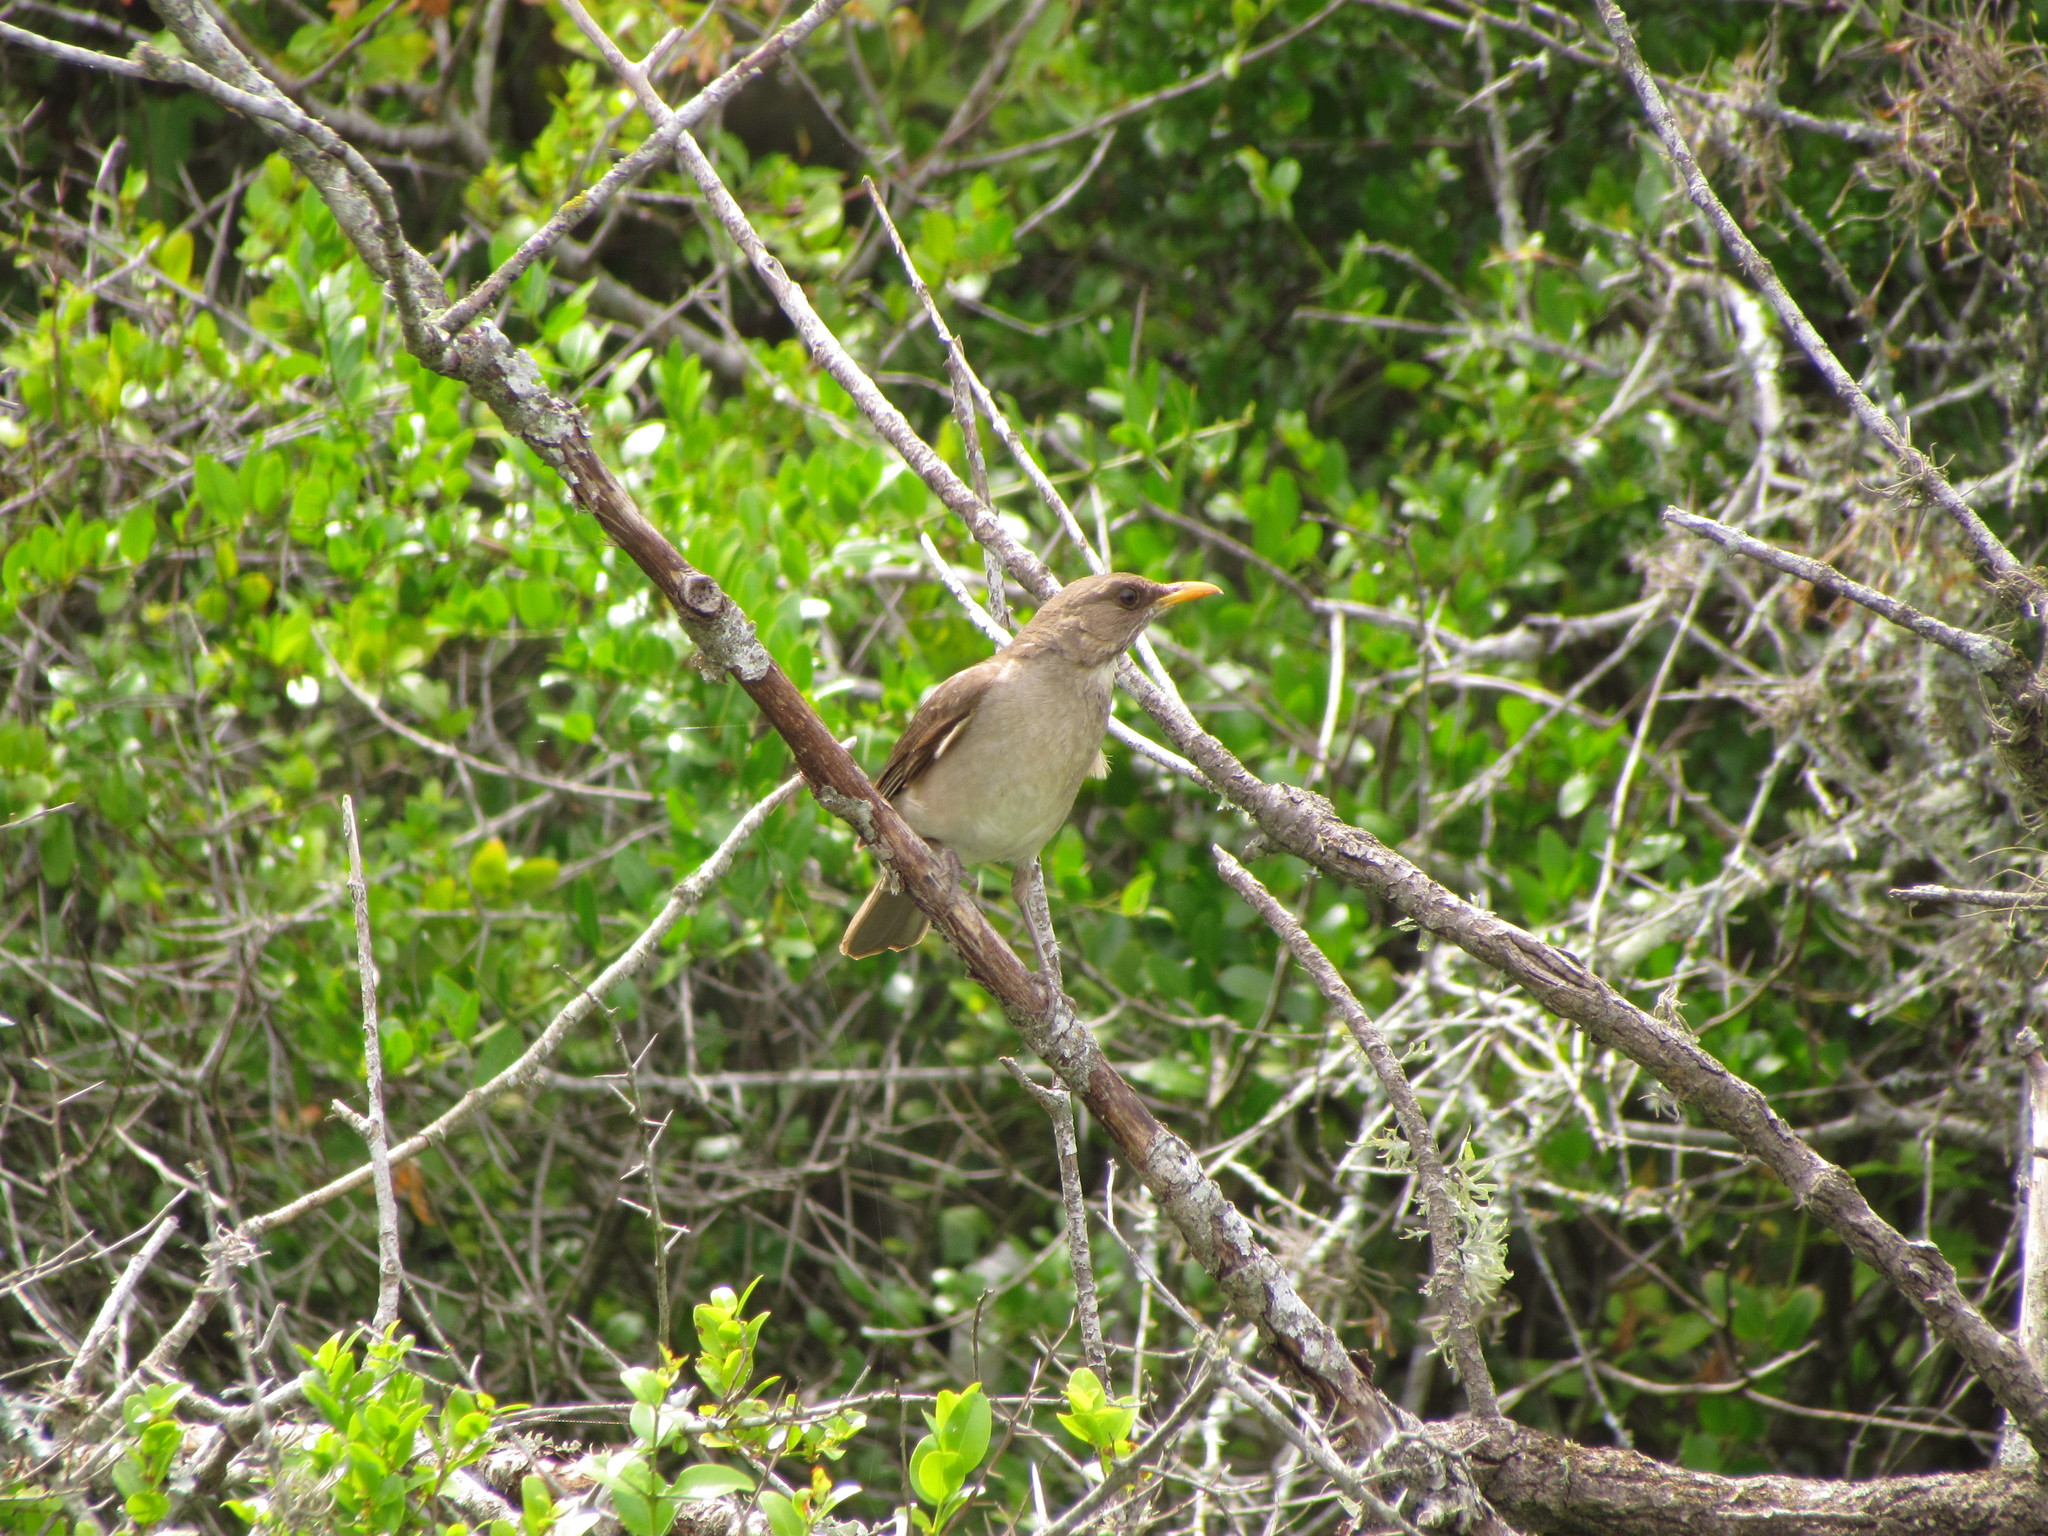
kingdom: Animalia
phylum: Chordata
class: Aves
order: Passeriformes
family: Turdidae
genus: Turdus
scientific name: Turdus amaurochalinus
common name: Creamy-bellied thrush
